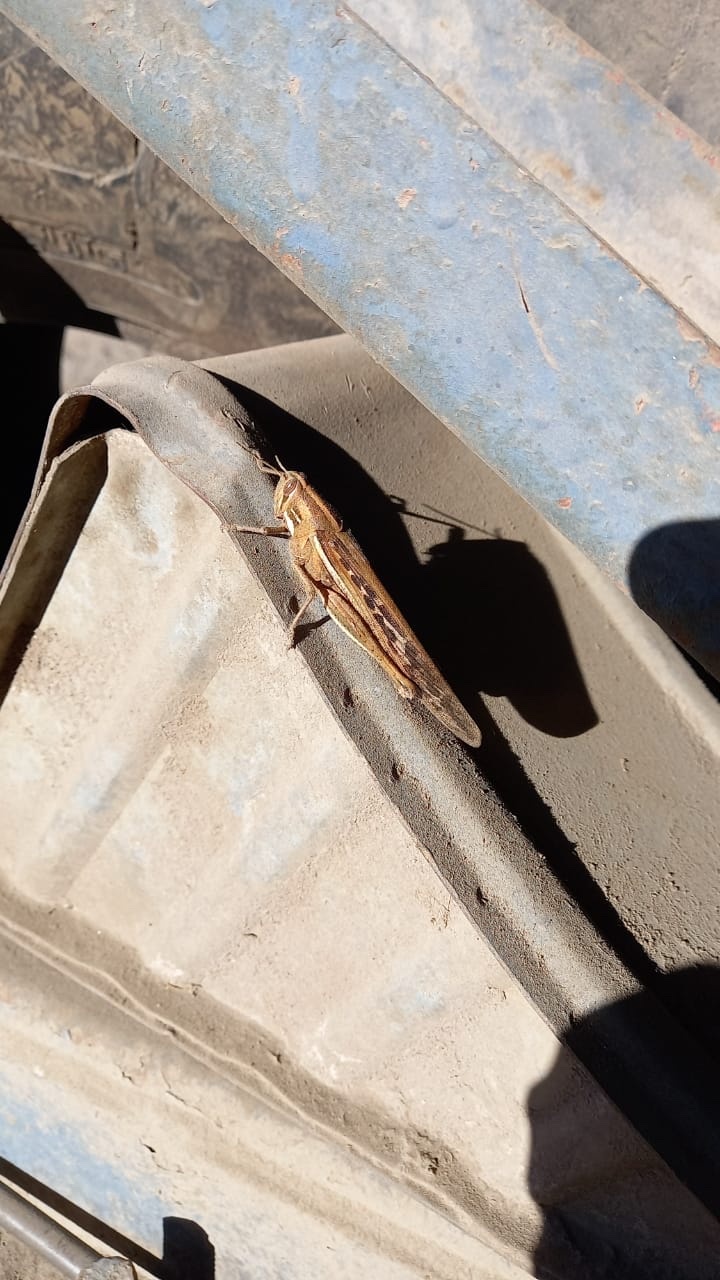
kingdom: Animalia
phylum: Arthropoda
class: Insecta
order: Orthoptera
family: Acrididae
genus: Schistocerca
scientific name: Schistocerca cancellata
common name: South american locust
